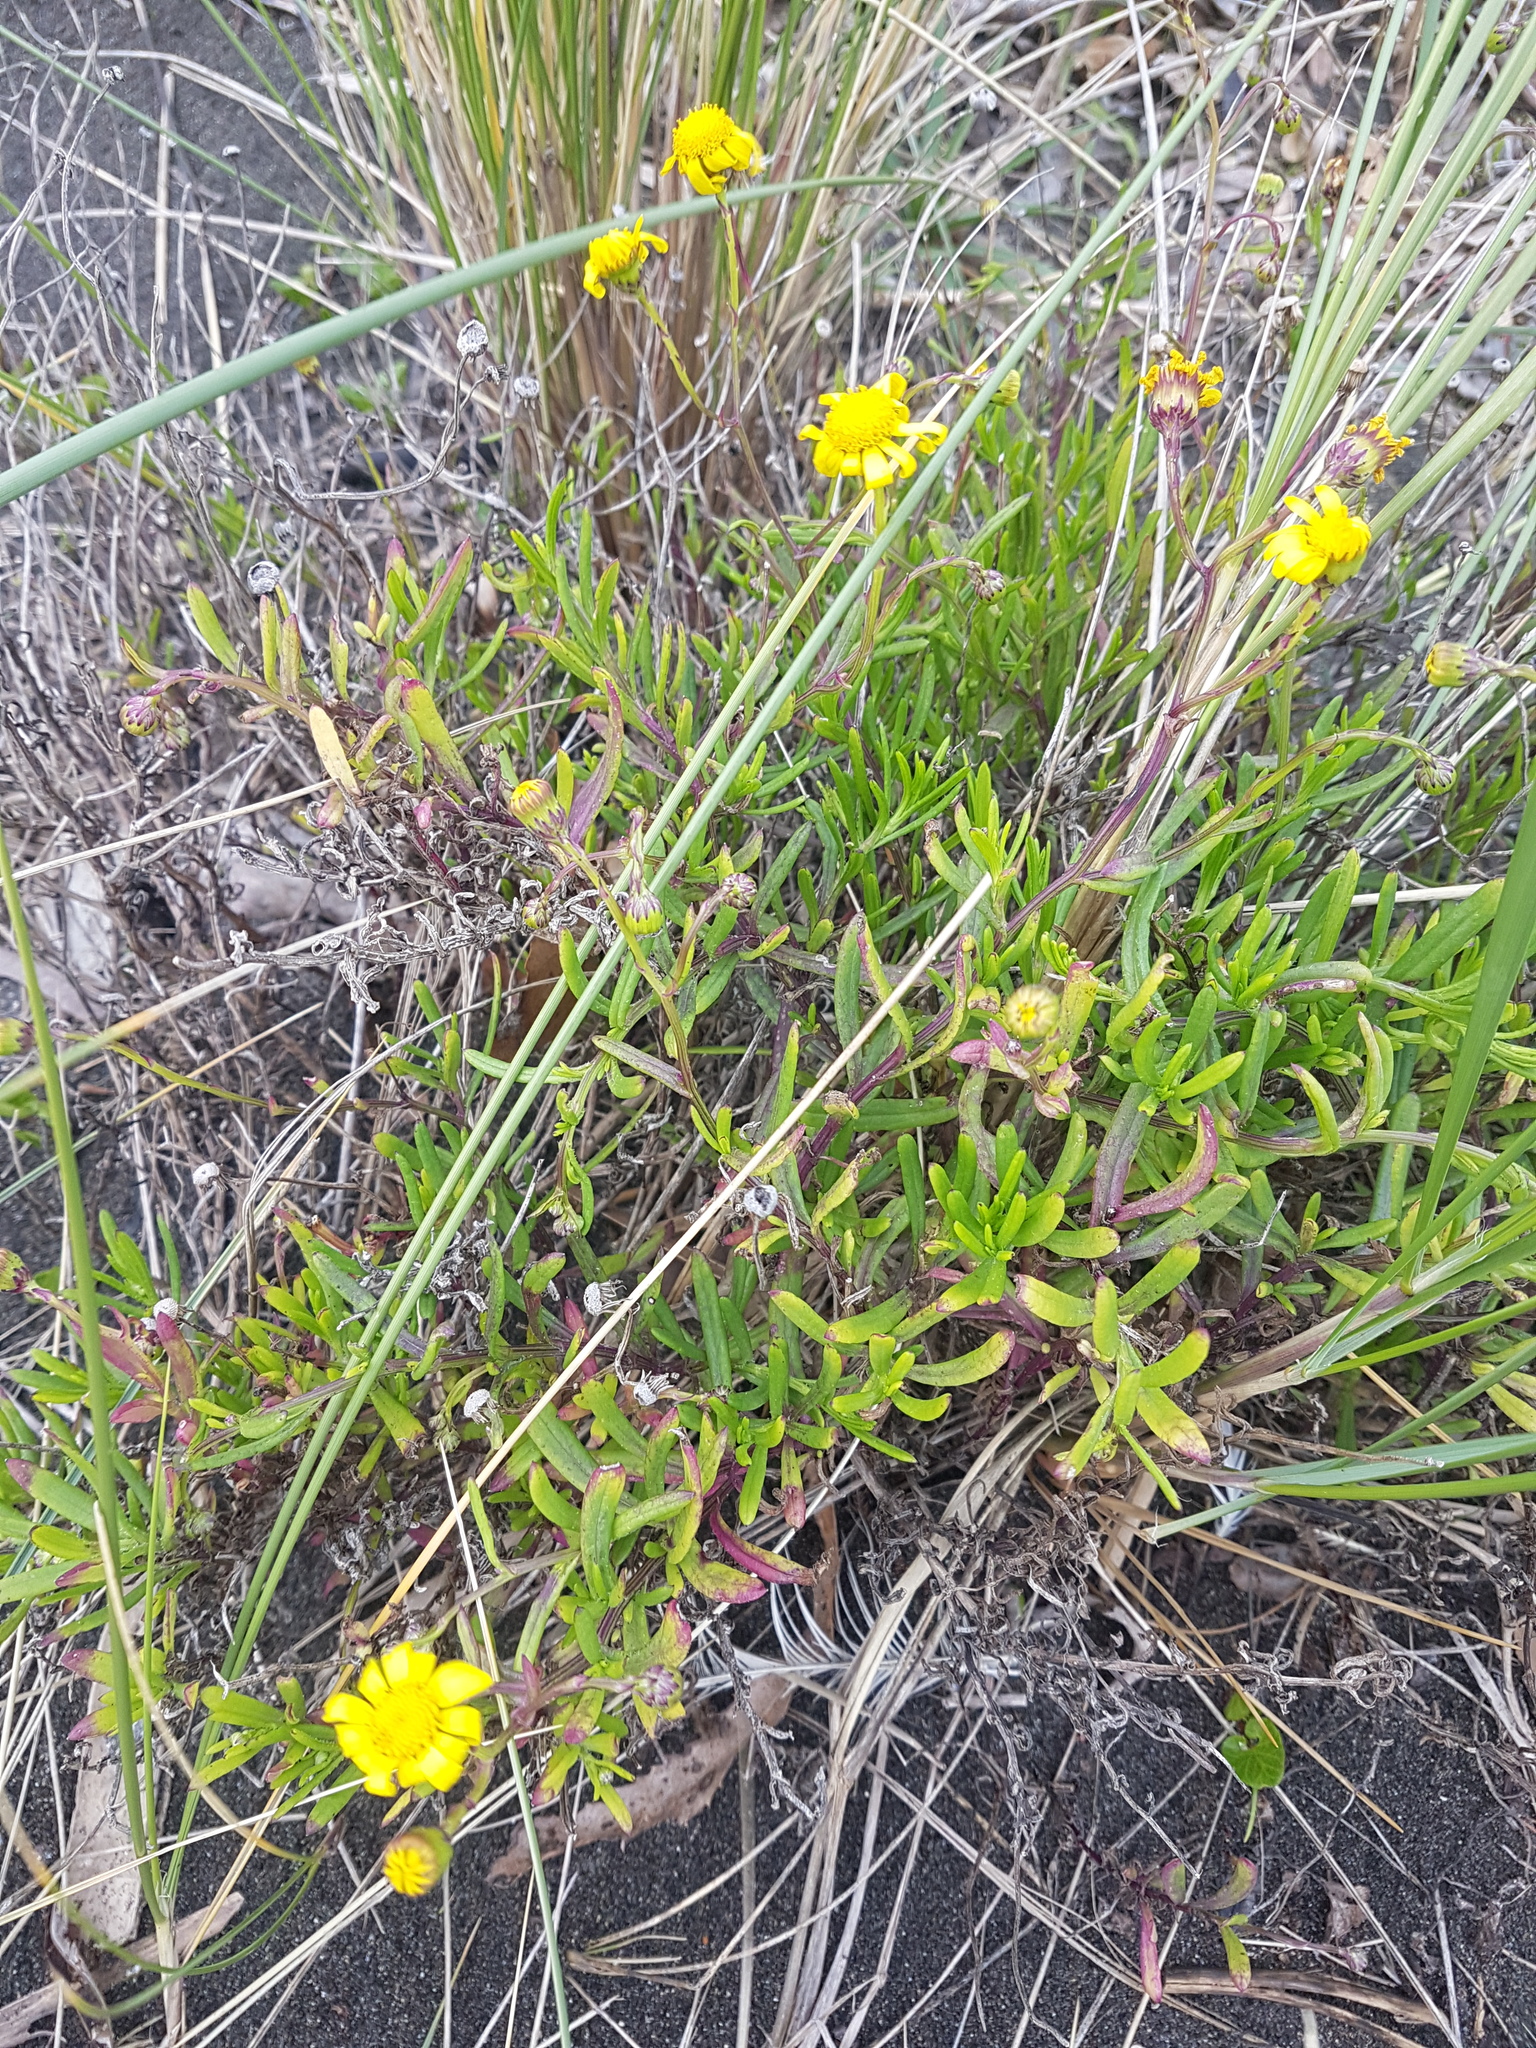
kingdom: Plantae
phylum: Tracheophyta
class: Magnoliopsida
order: Asterales
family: Asteraceae
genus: Senecio
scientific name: Senecio skirrhodon
